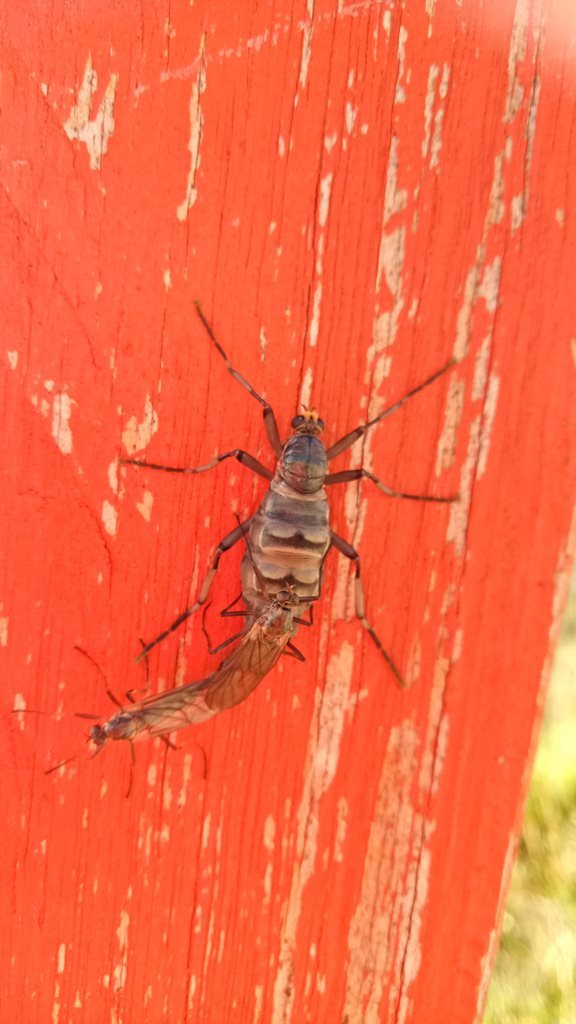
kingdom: Animalia
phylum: Arthropoda
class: Insecta
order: Diptera
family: Stratiomyidae
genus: Boreoides
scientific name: Boreoides subulatus
